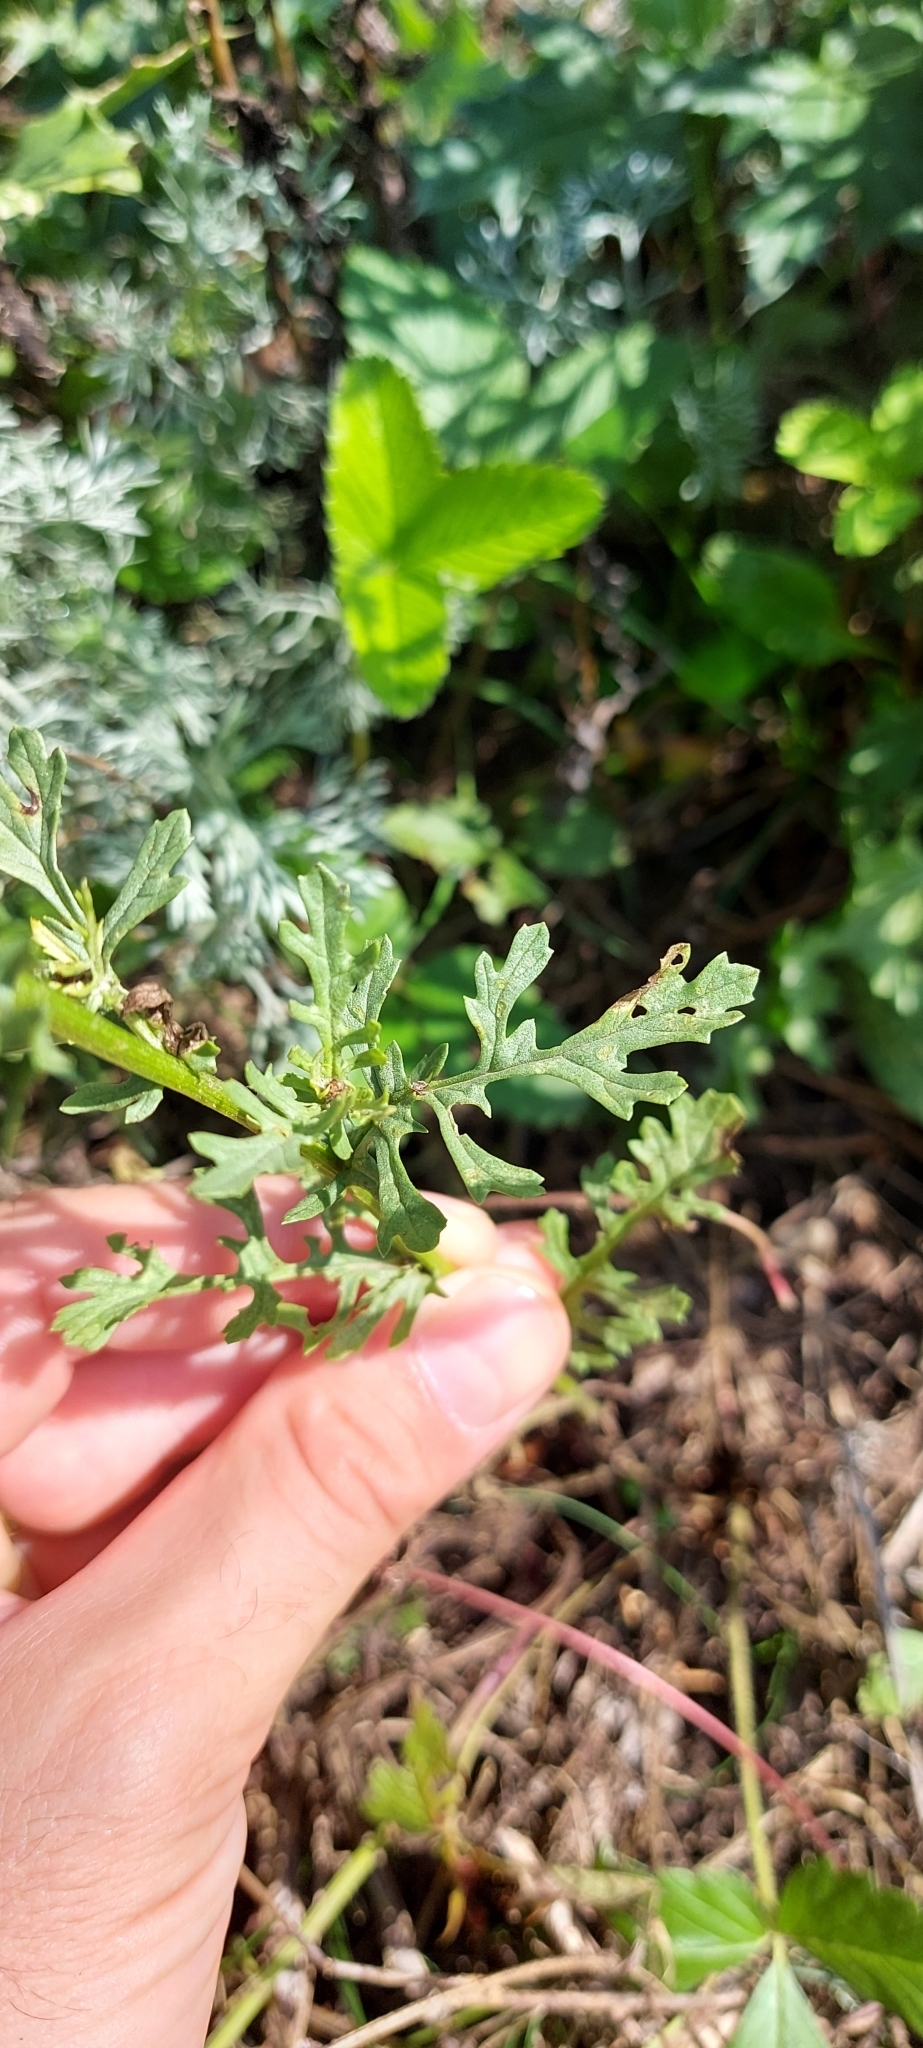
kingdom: Plantae
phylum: Tracheophyta
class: Magnoliopsida
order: Asterales
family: Asteraceae
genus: Jacobaea
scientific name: Jacobaea vulgaris
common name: Stinking willie
